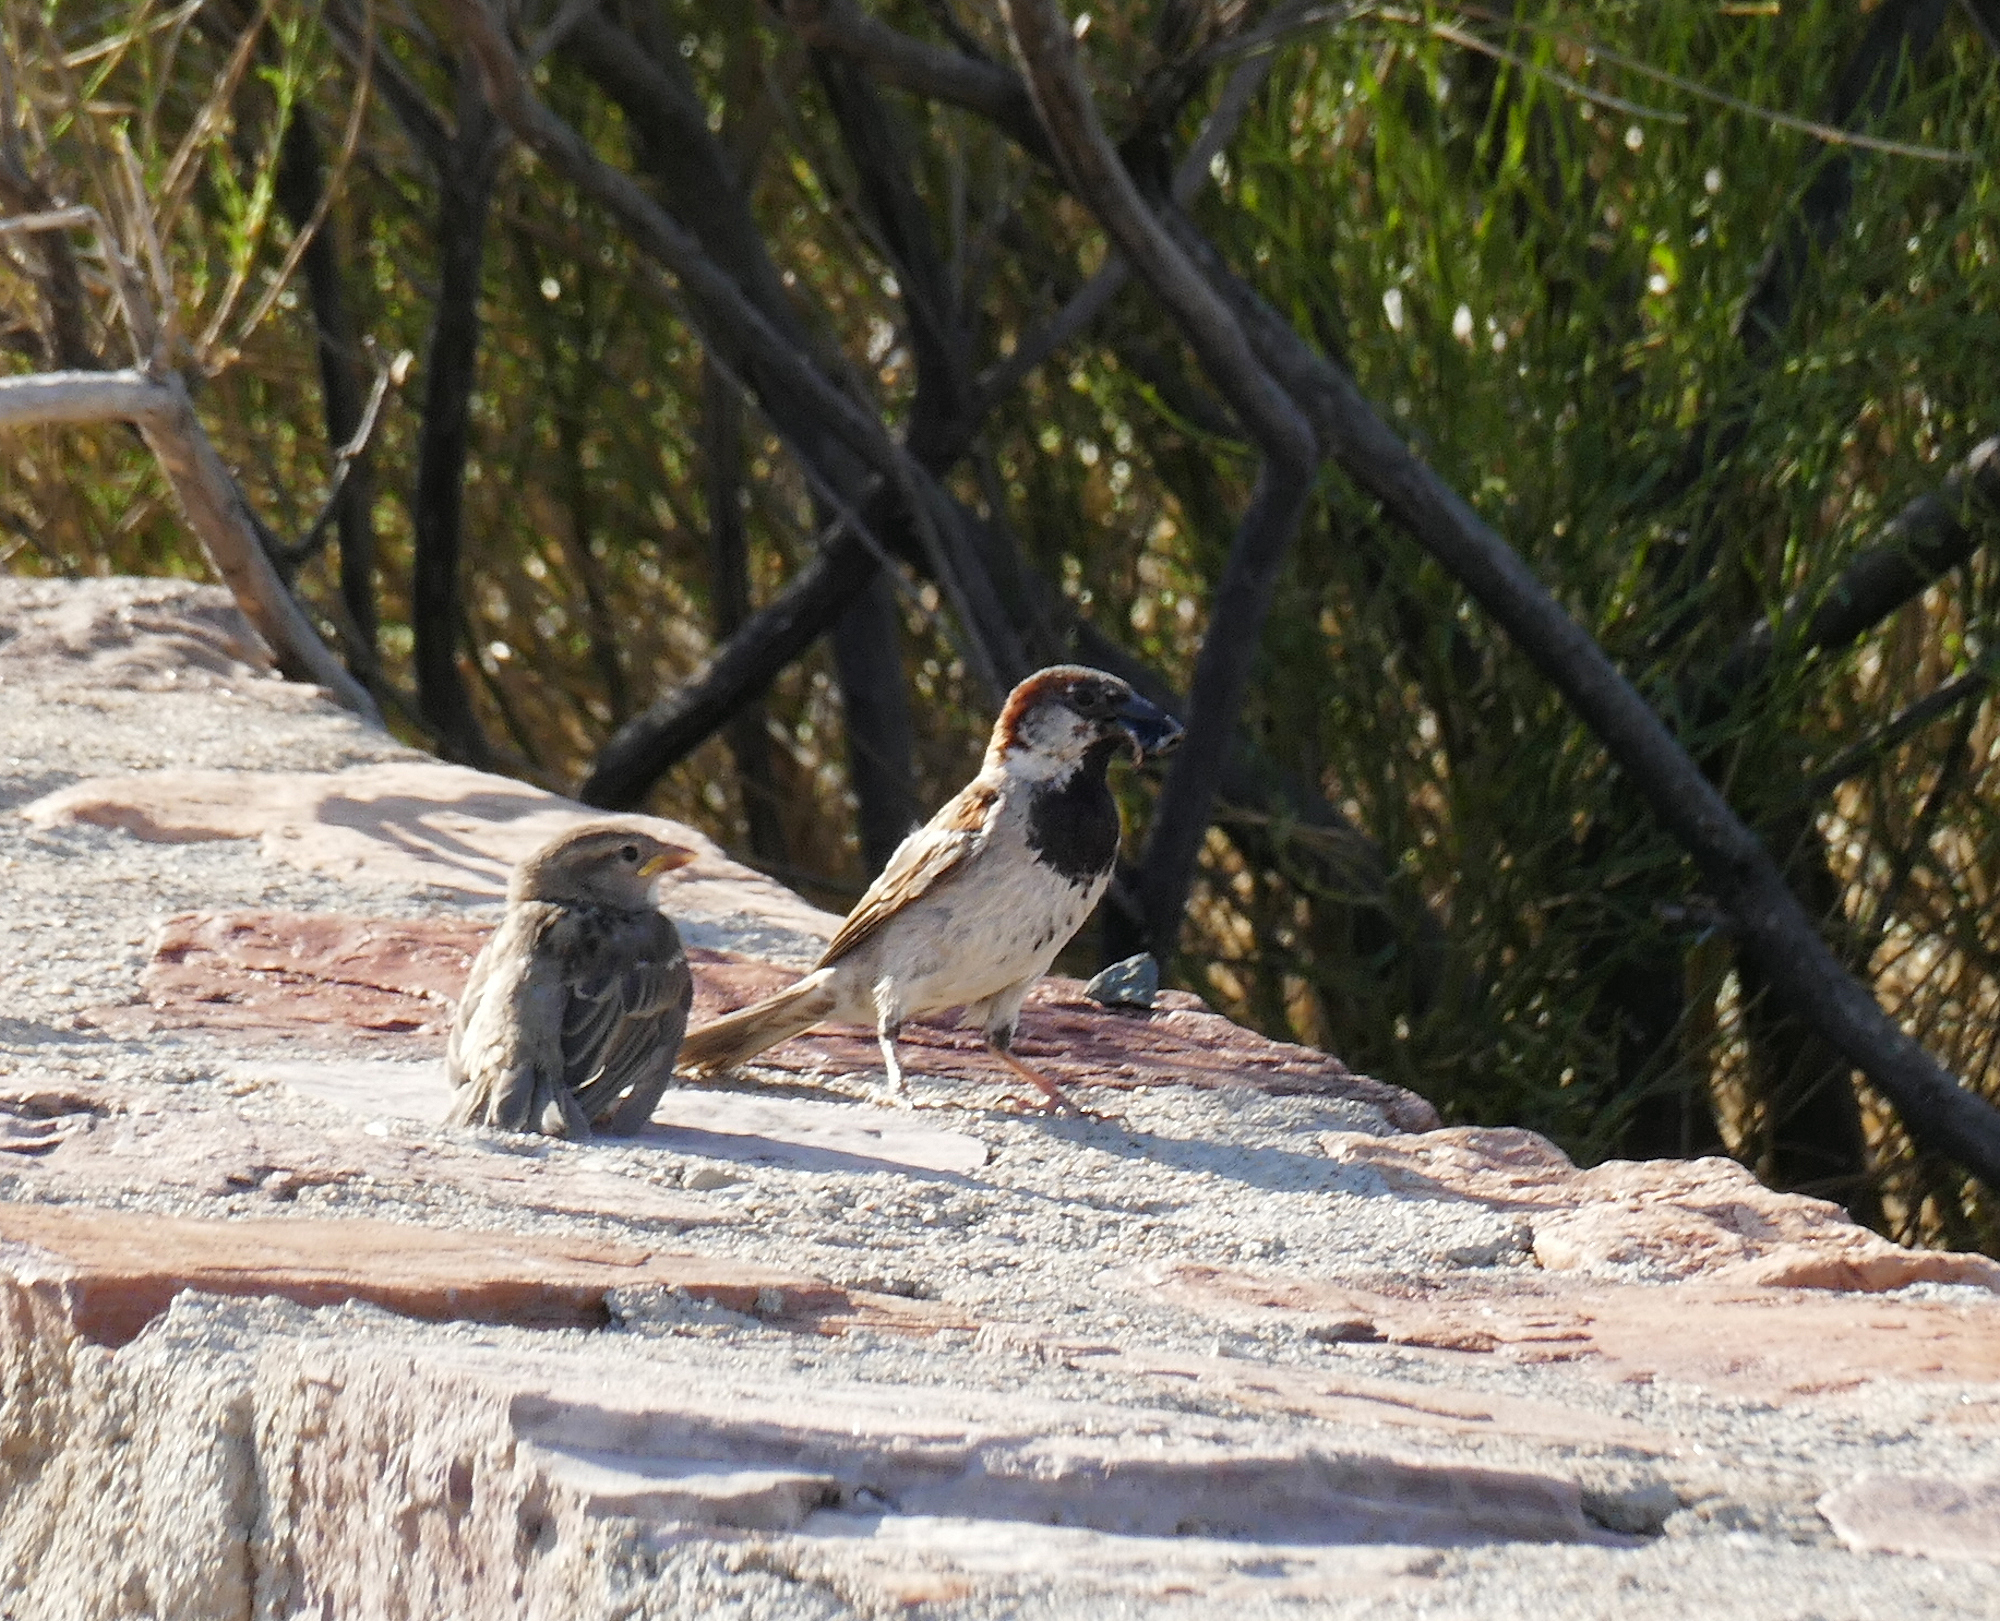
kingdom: Animalia
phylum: Chordata
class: Aves
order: Passeriformes
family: Passeridae
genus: Passer
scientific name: Passer domesticus
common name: House sparrow
